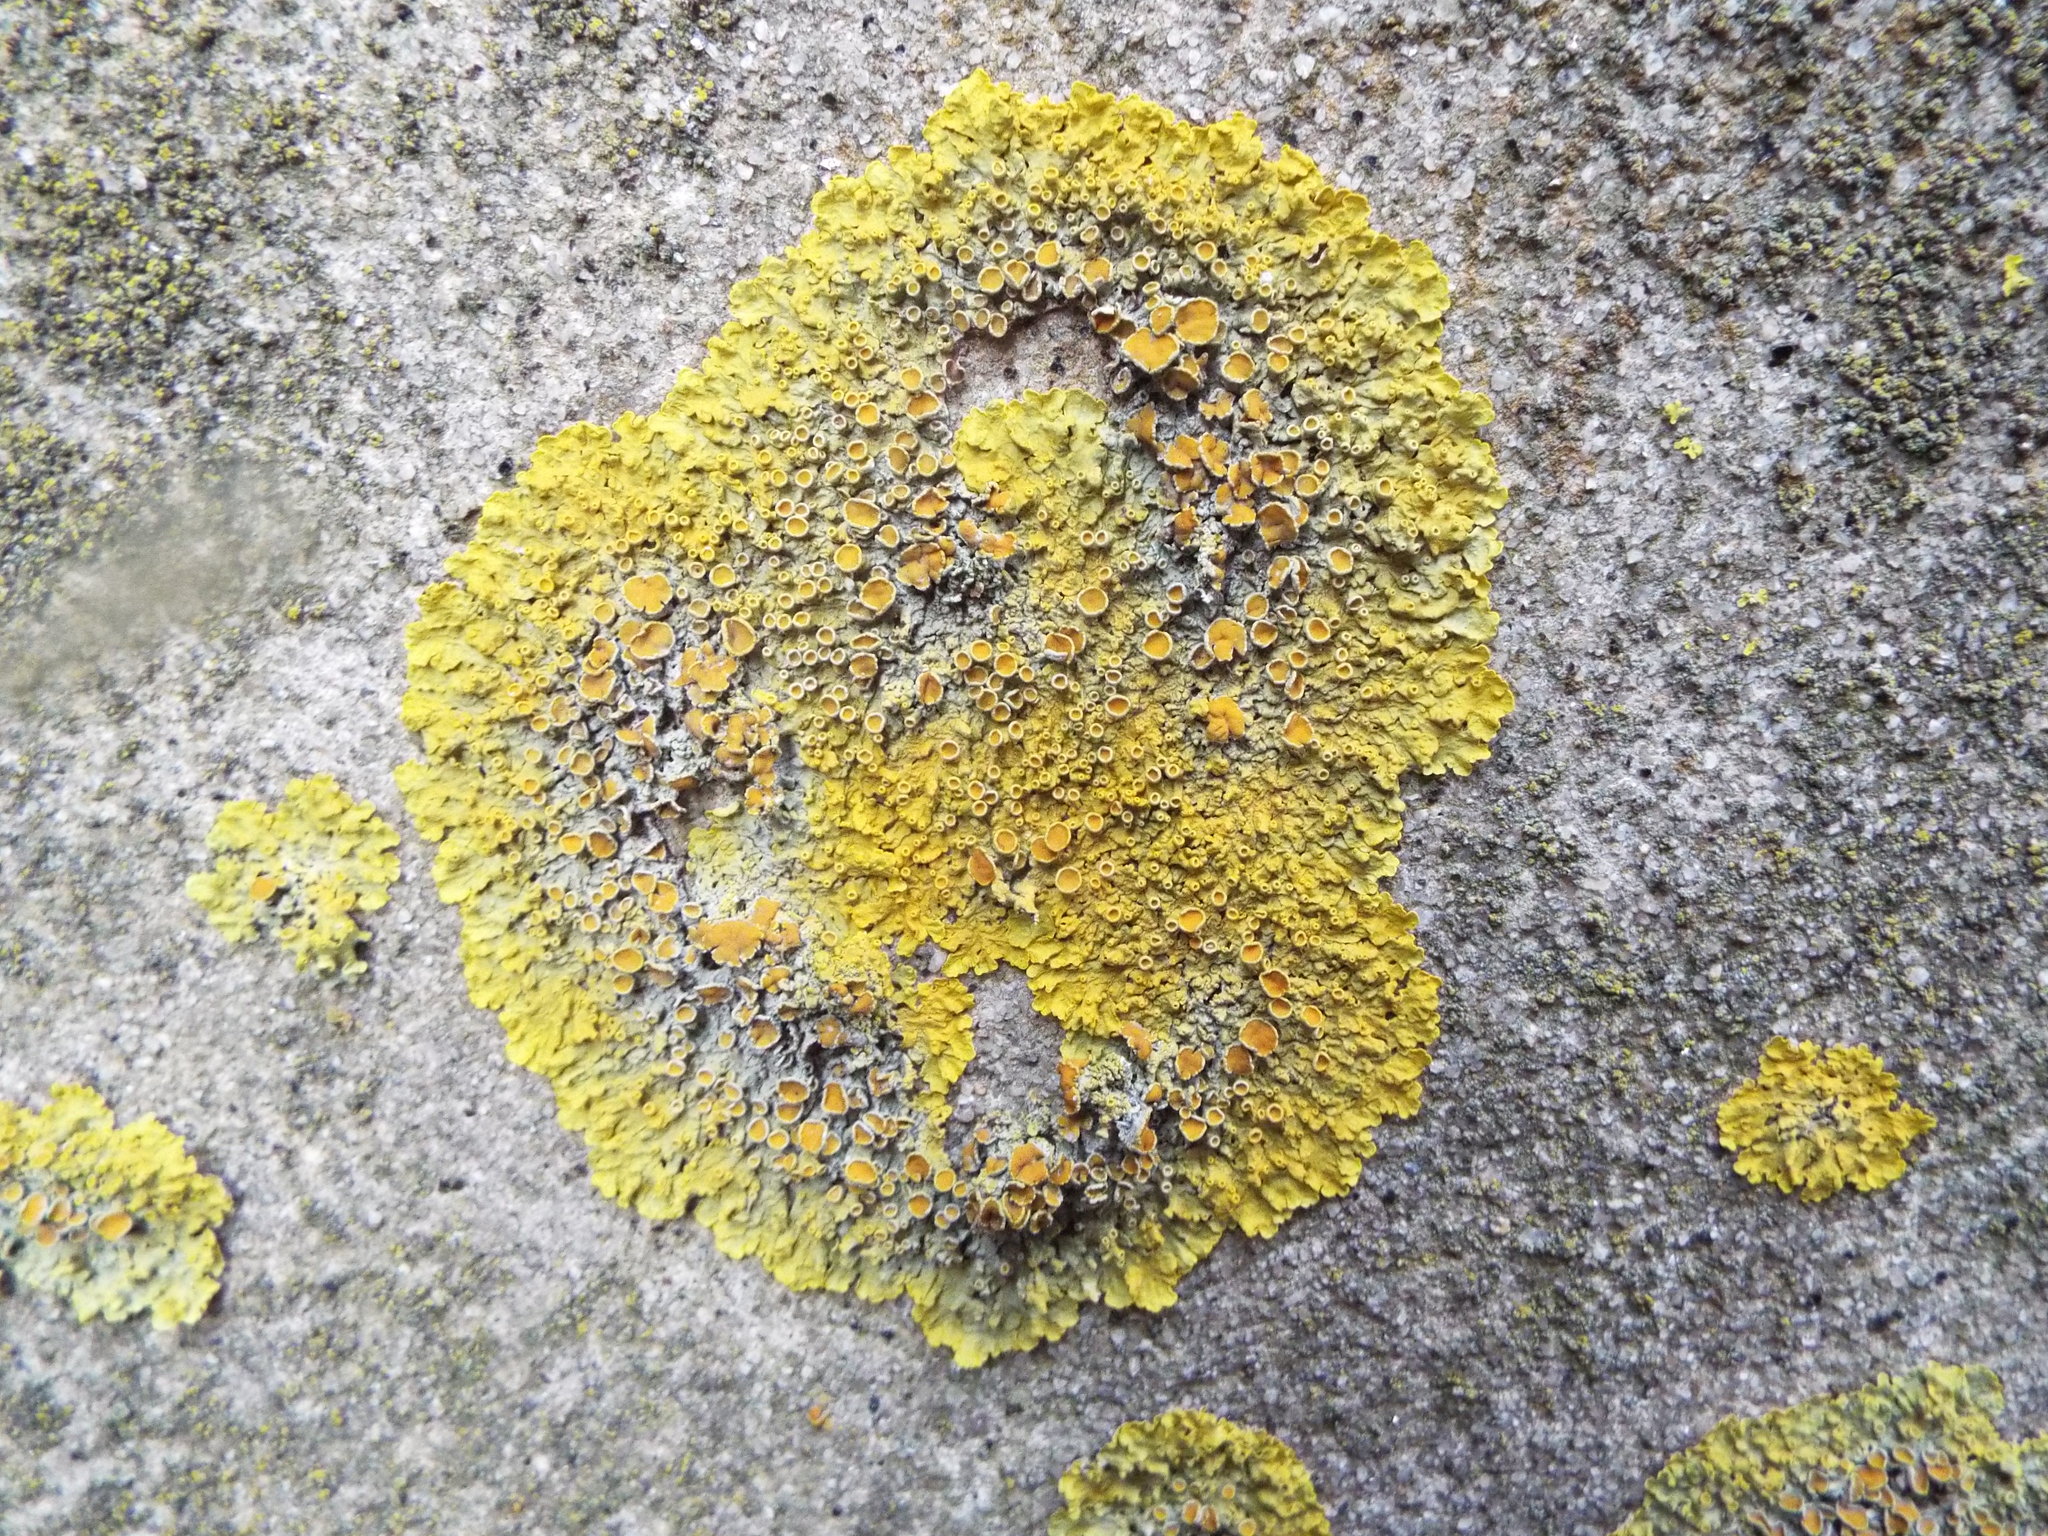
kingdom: Fungi
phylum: Ascomycota
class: Lecanoromycetes
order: Teloschistales
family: Teloschistaceae
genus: Xanthoria
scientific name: Xanthoria parietina
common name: Common orange lichen
